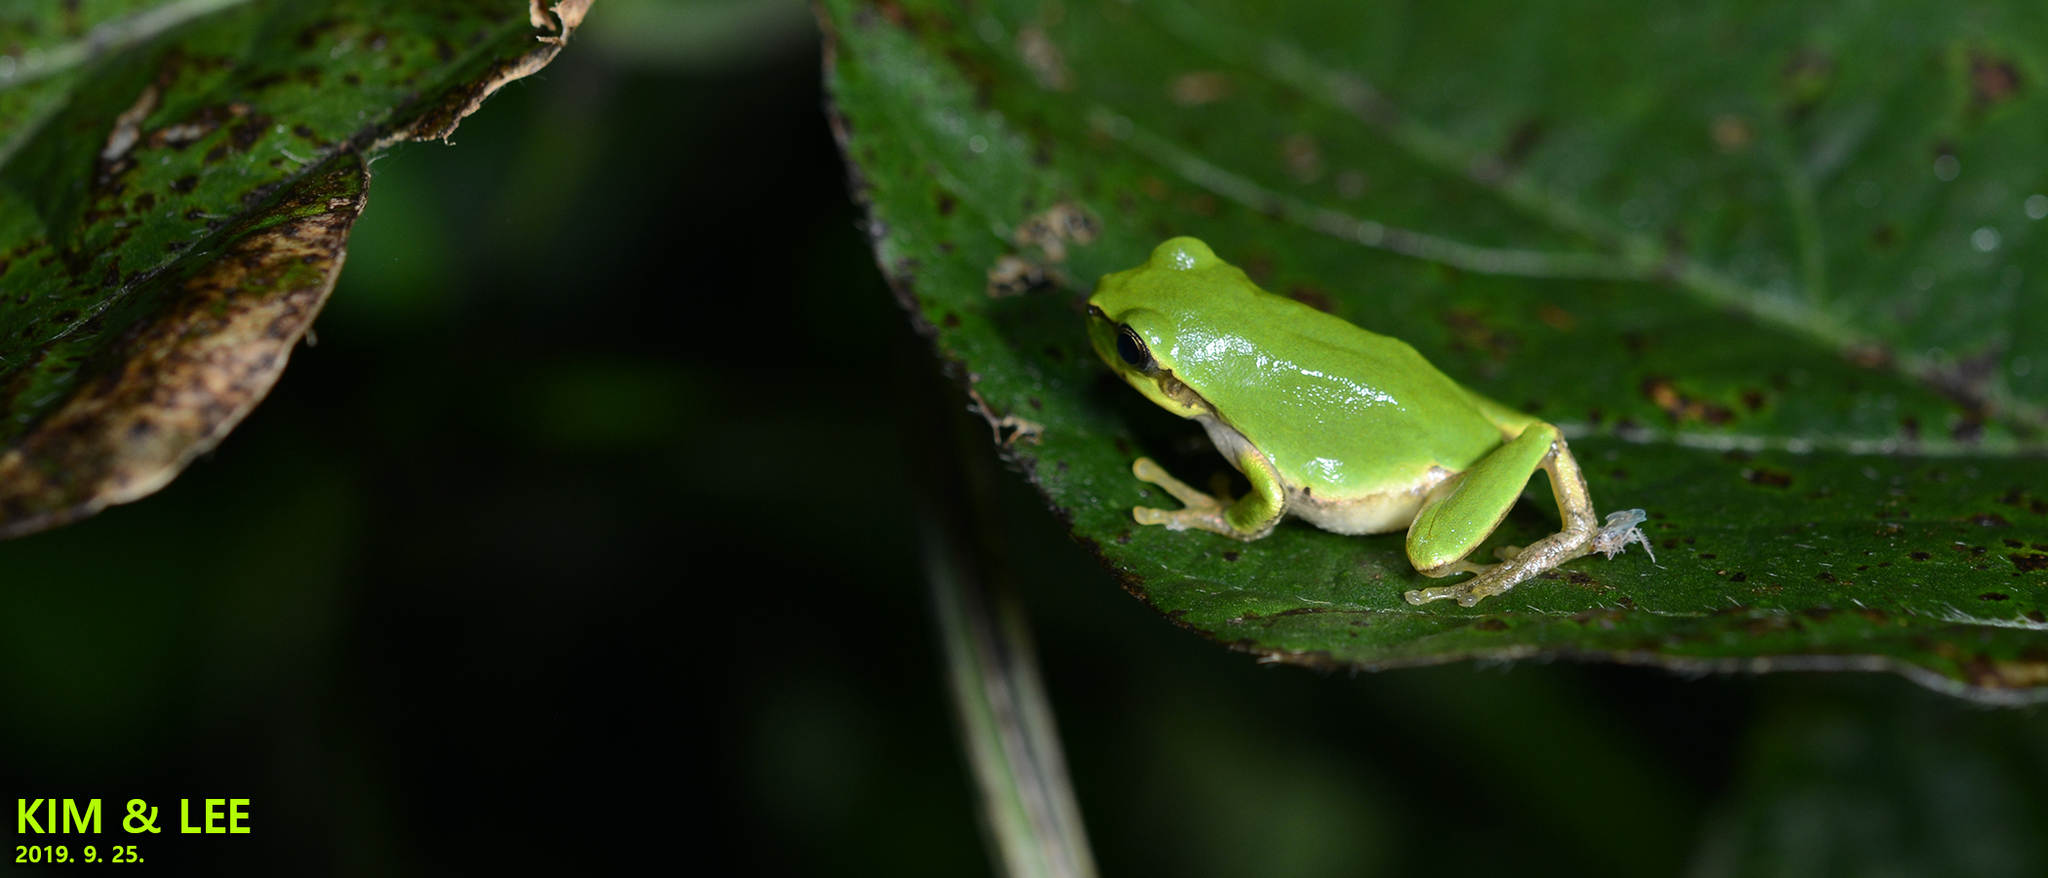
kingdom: Animalia
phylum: Chordata
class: Amphibia
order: Anura
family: Hylidae
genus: Dryophytes
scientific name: Dryophytes japonicus
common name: Japanese treefrog
